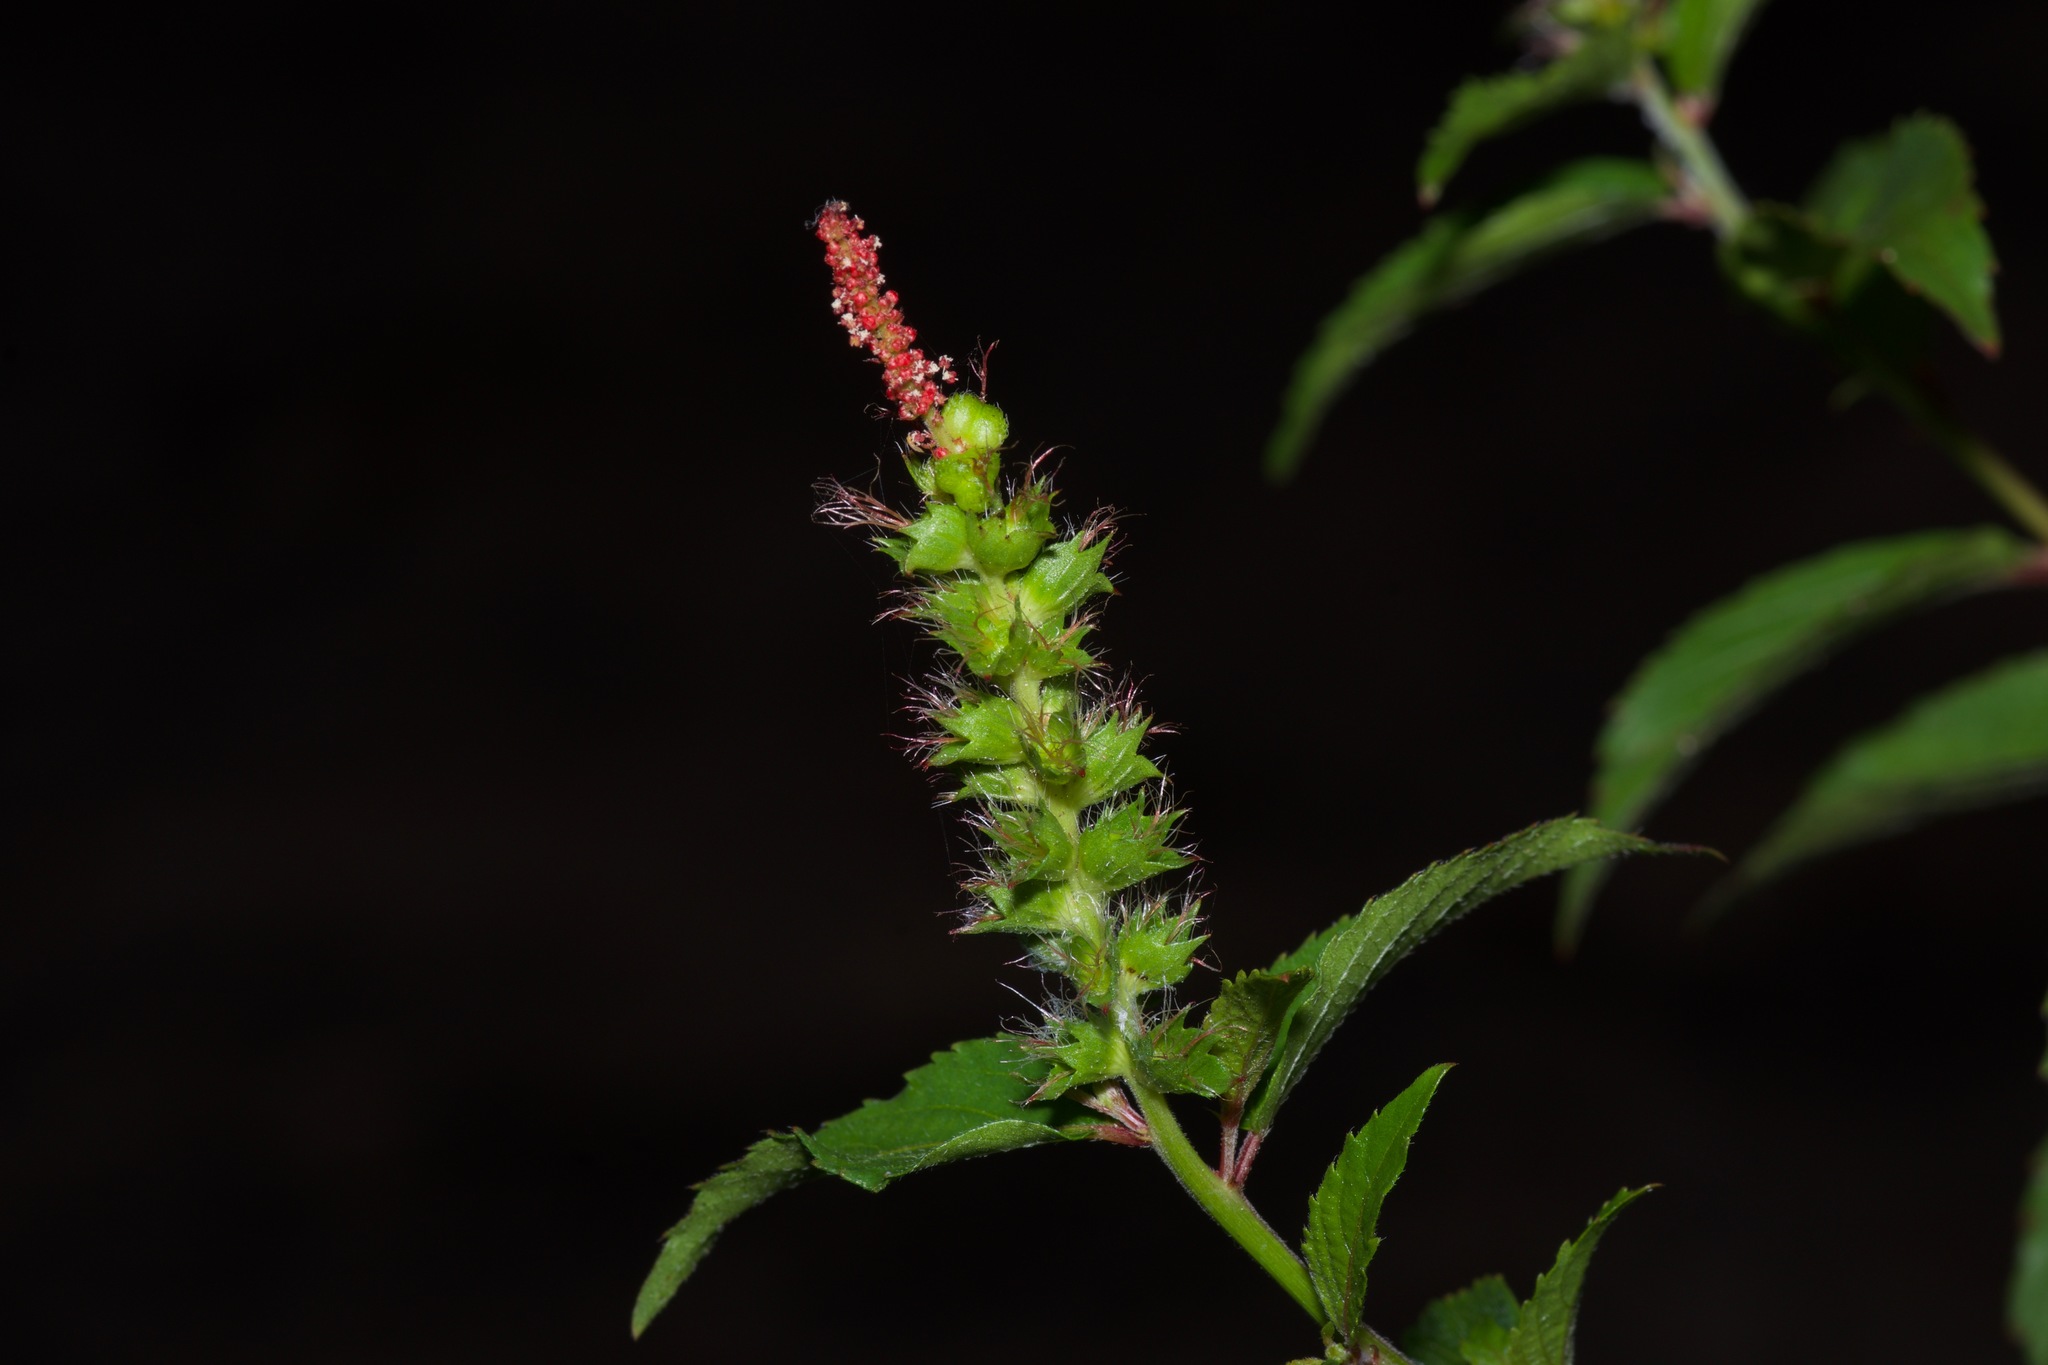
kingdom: Plantae
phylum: Tracheophyta
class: Magnoliopsida
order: Malpighiales
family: Euphorbiaceae
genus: Acalypha
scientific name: Acalypha phleoides
